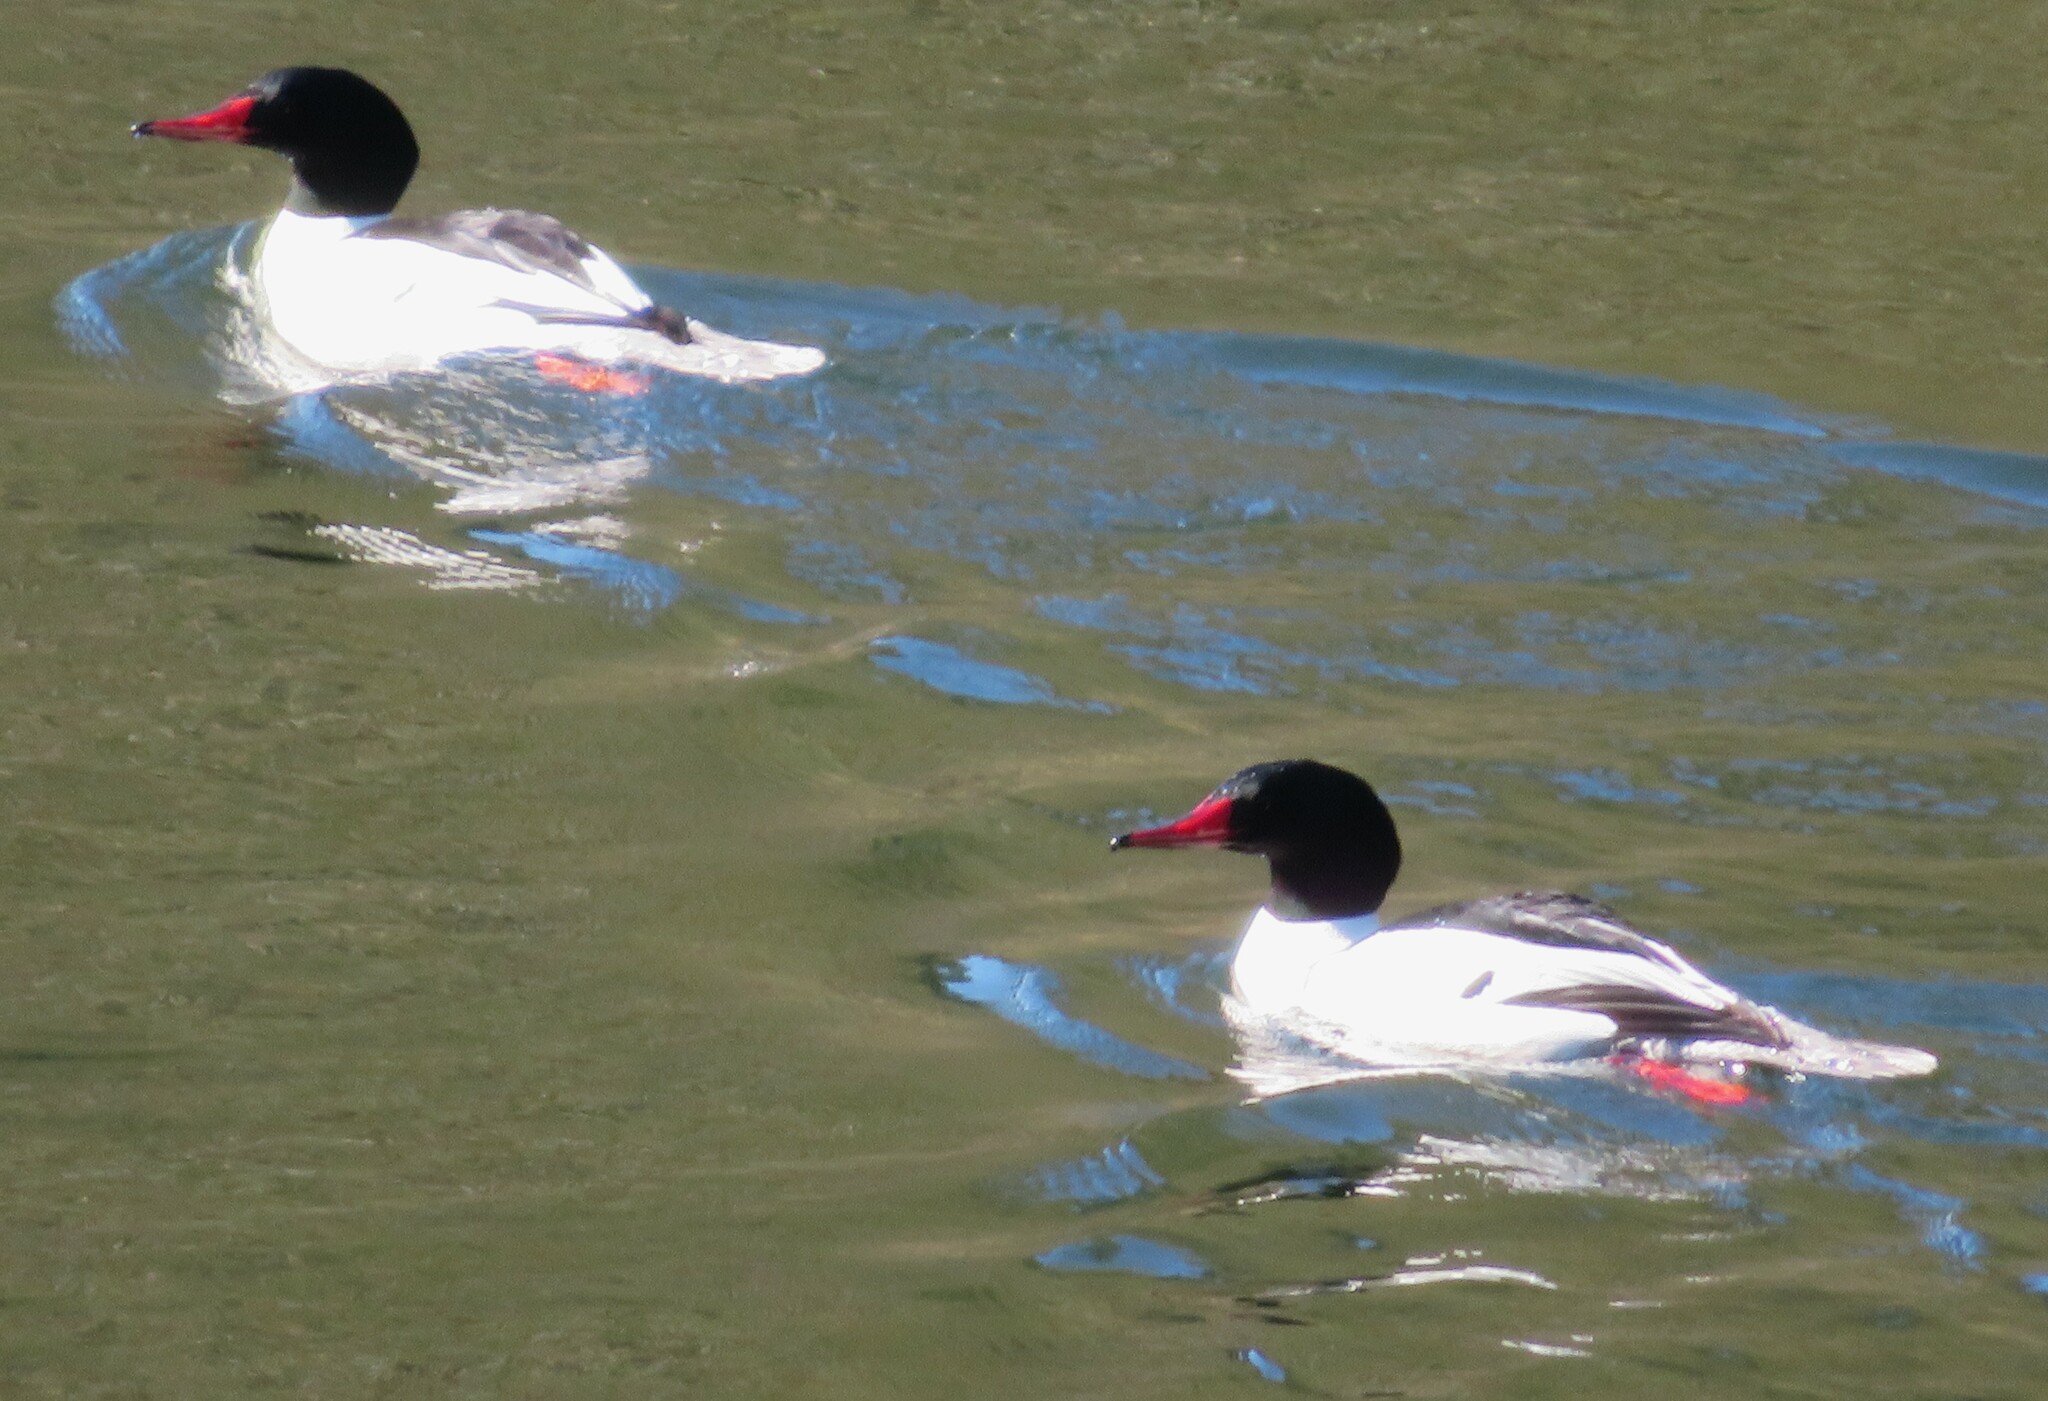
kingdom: Animalia
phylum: Chordata
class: Aves
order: Anseriformes
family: Anatidae
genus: Mergus
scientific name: Mergus merganser
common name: Common merganser
